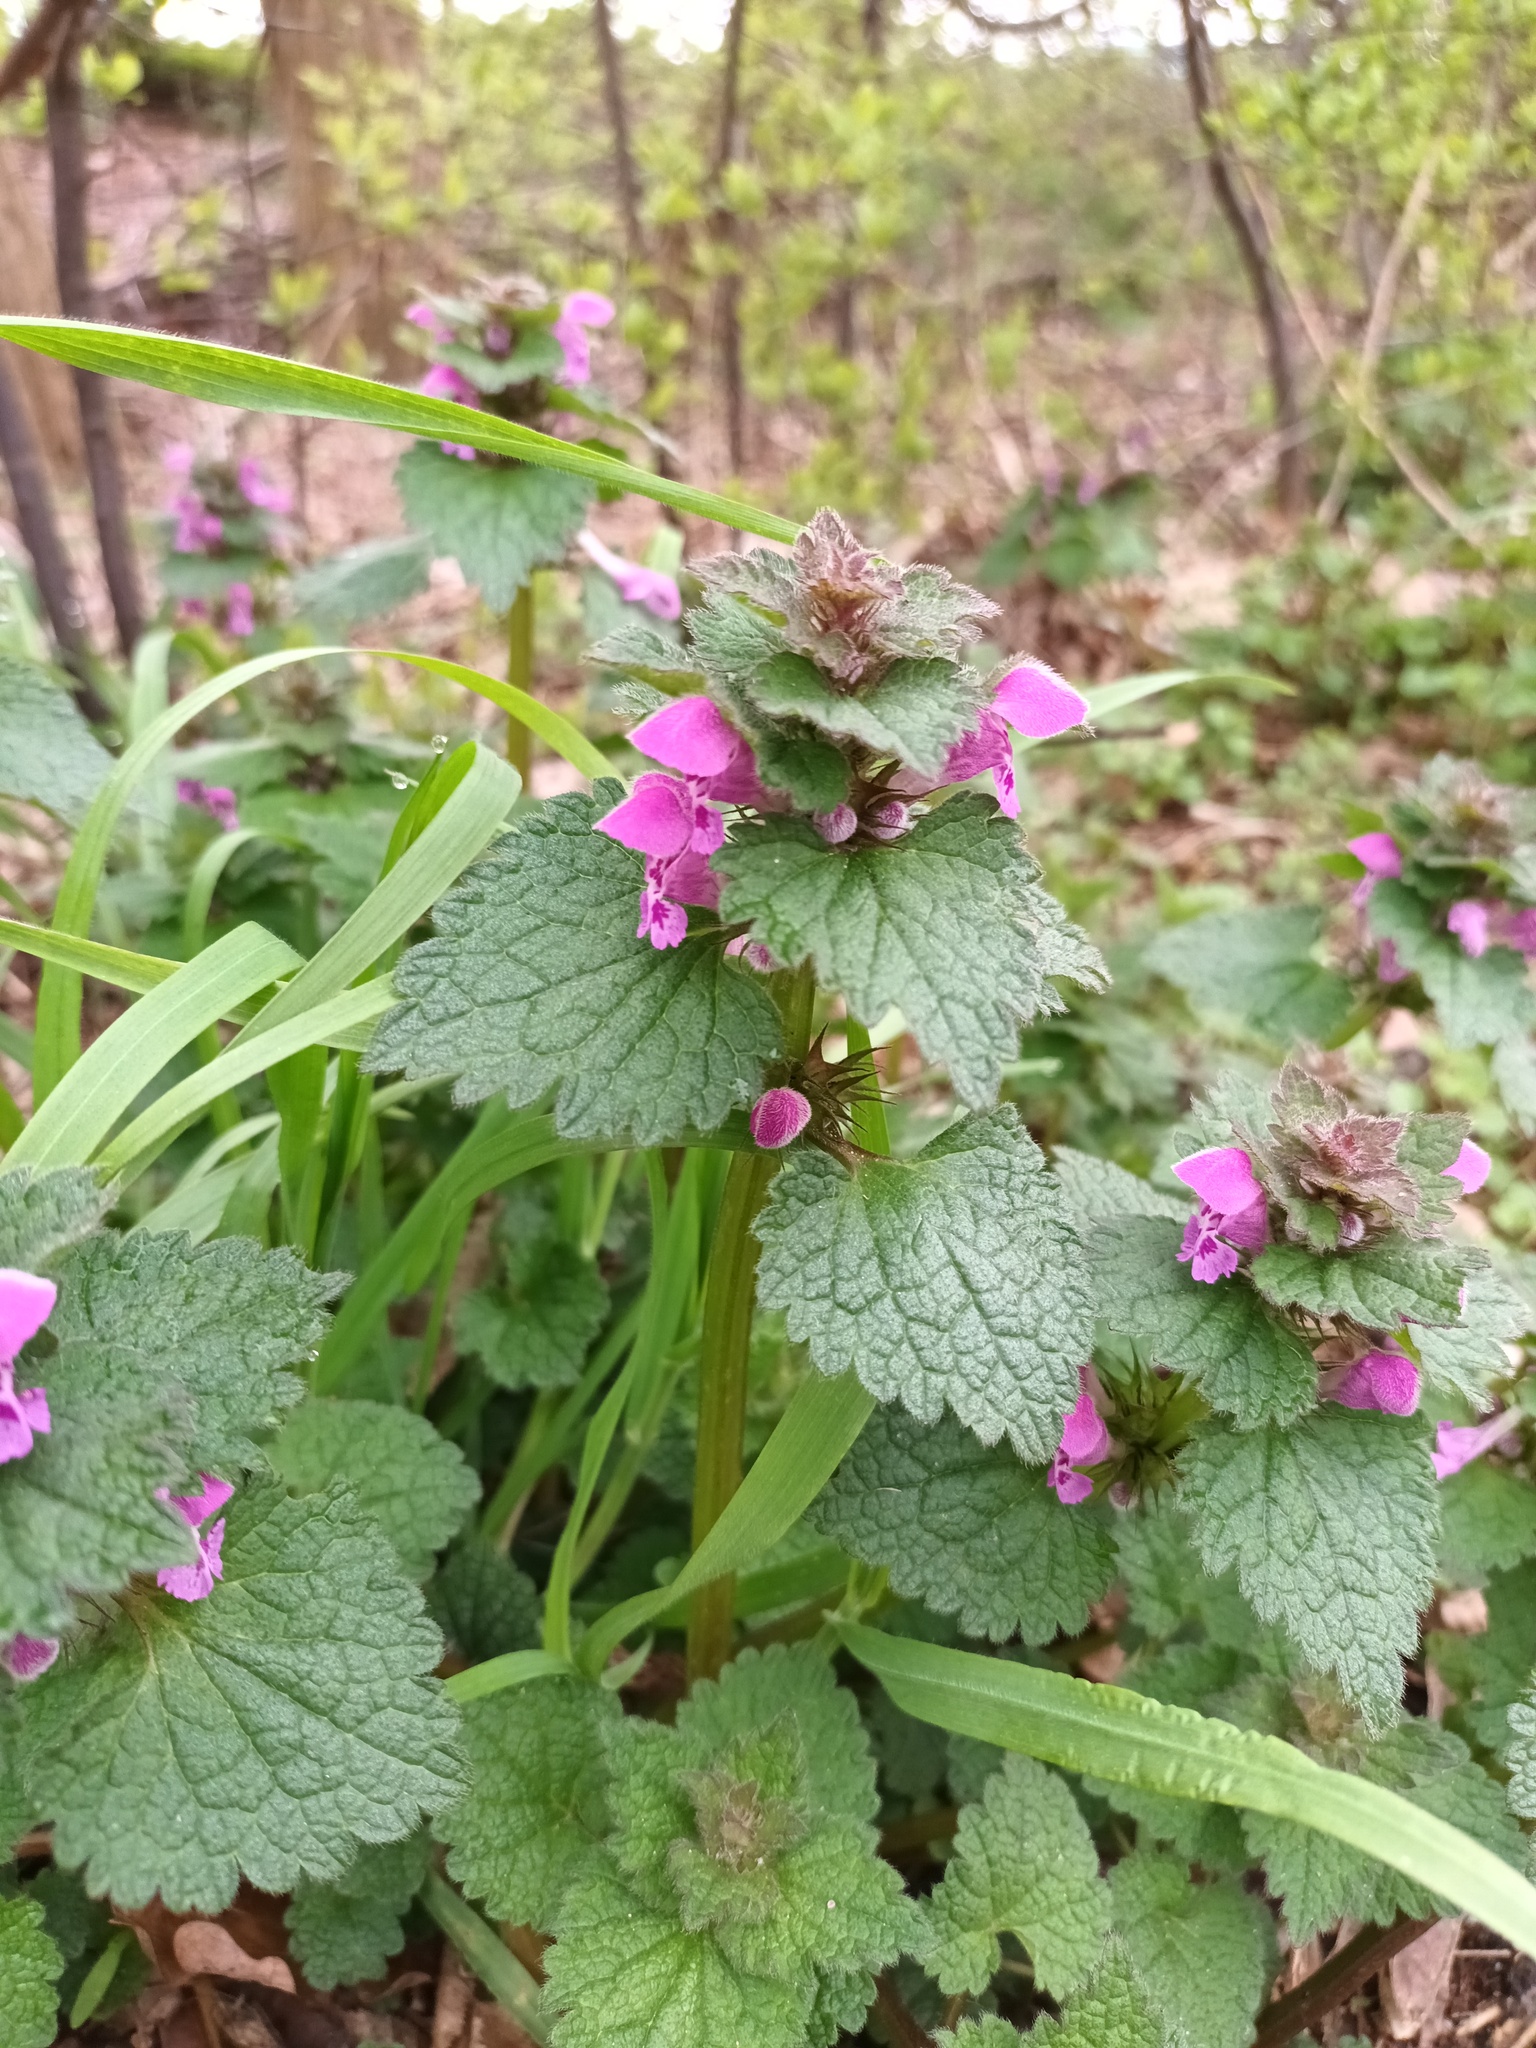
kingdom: Plantae
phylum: Tracheophyta
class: Magnoliopsida
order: Lamiales
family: Lamiaceae
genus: Lamium
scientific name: Lamium purpureum
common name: Red dead-nettle
